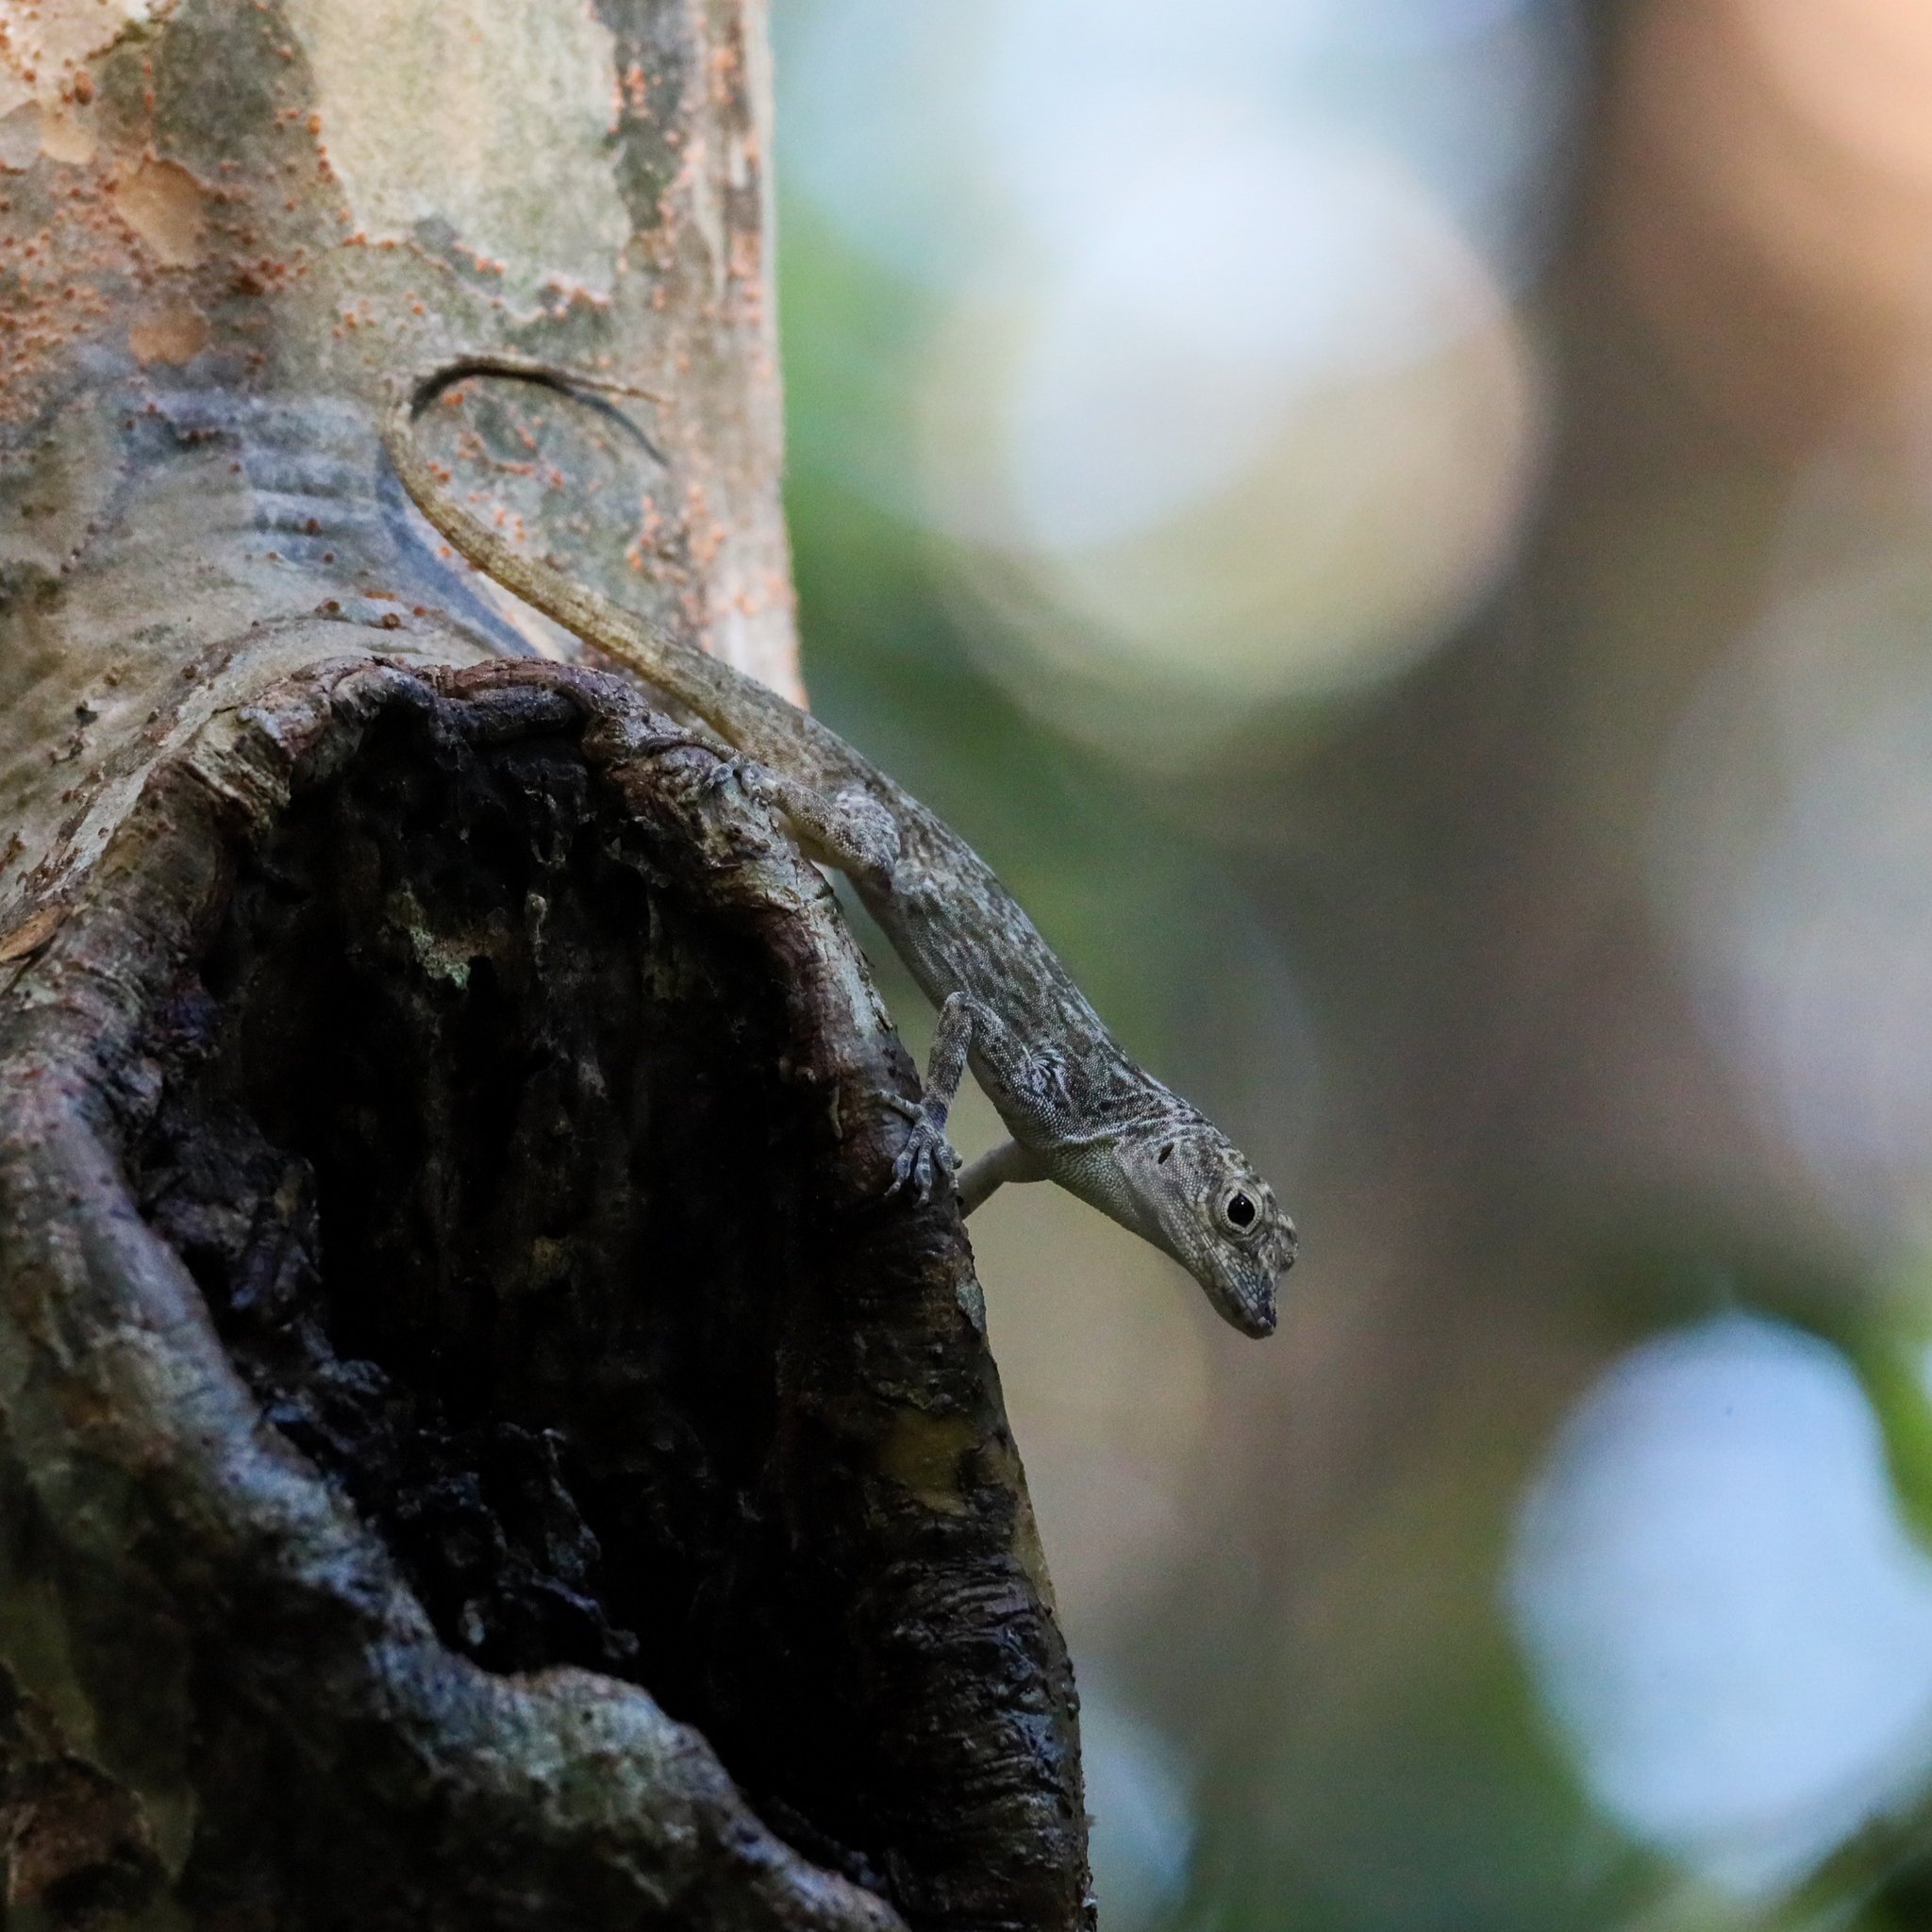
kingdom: Animalia
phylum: Chordata
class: Squamata
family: Dactyloidae
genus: Anolis
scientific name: Anolis distichus
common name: Bark anole
